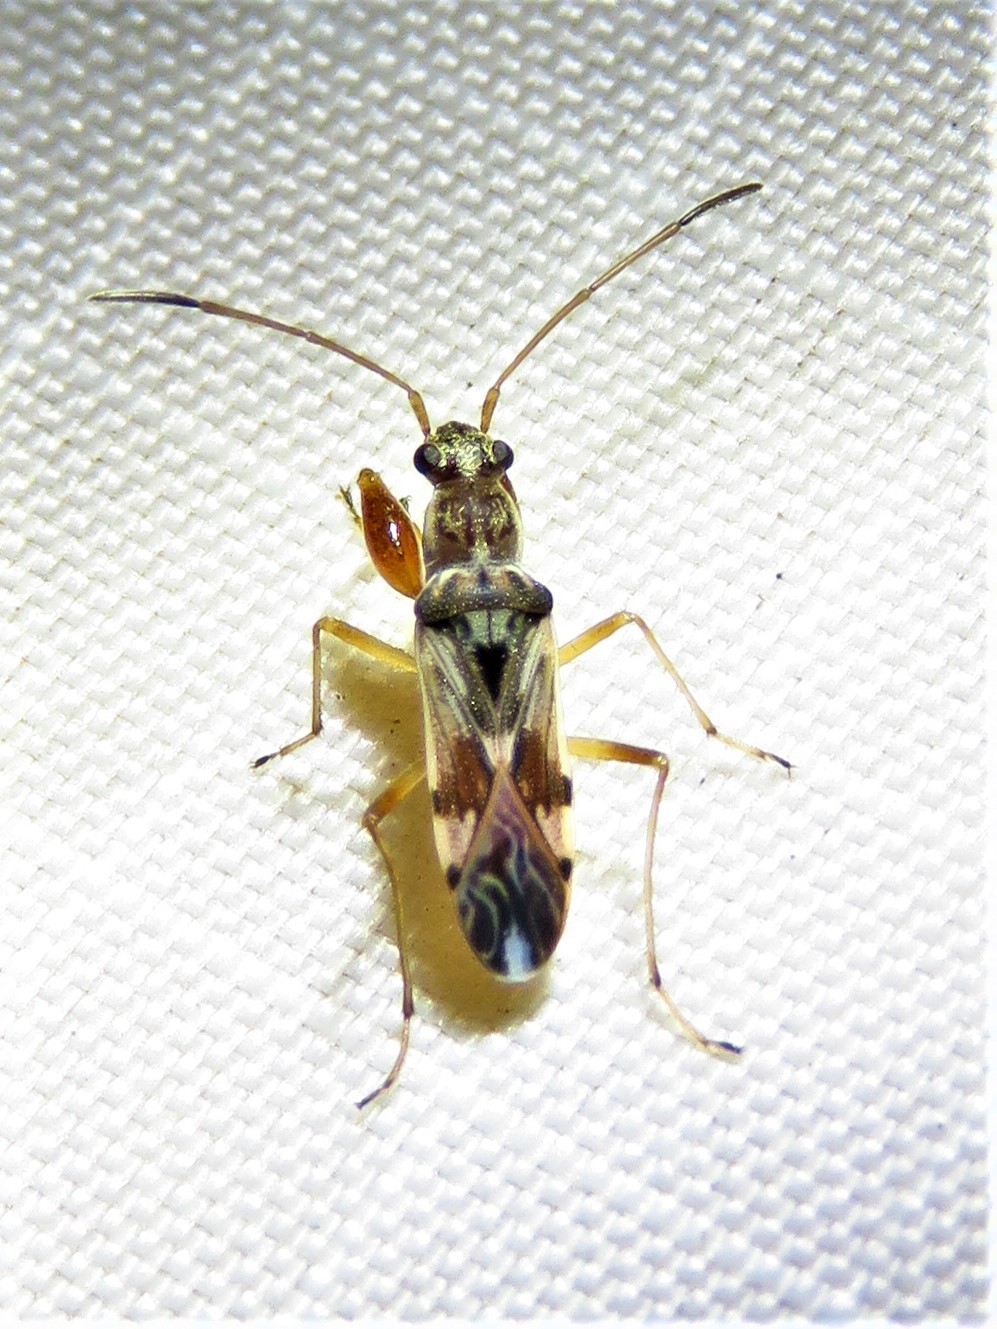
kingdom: Animalia
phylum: Arthropoda
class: Insecta
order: Hemiptera
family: Rhyparochromidae
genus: Neopamera
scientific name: Neopamera bilobata
